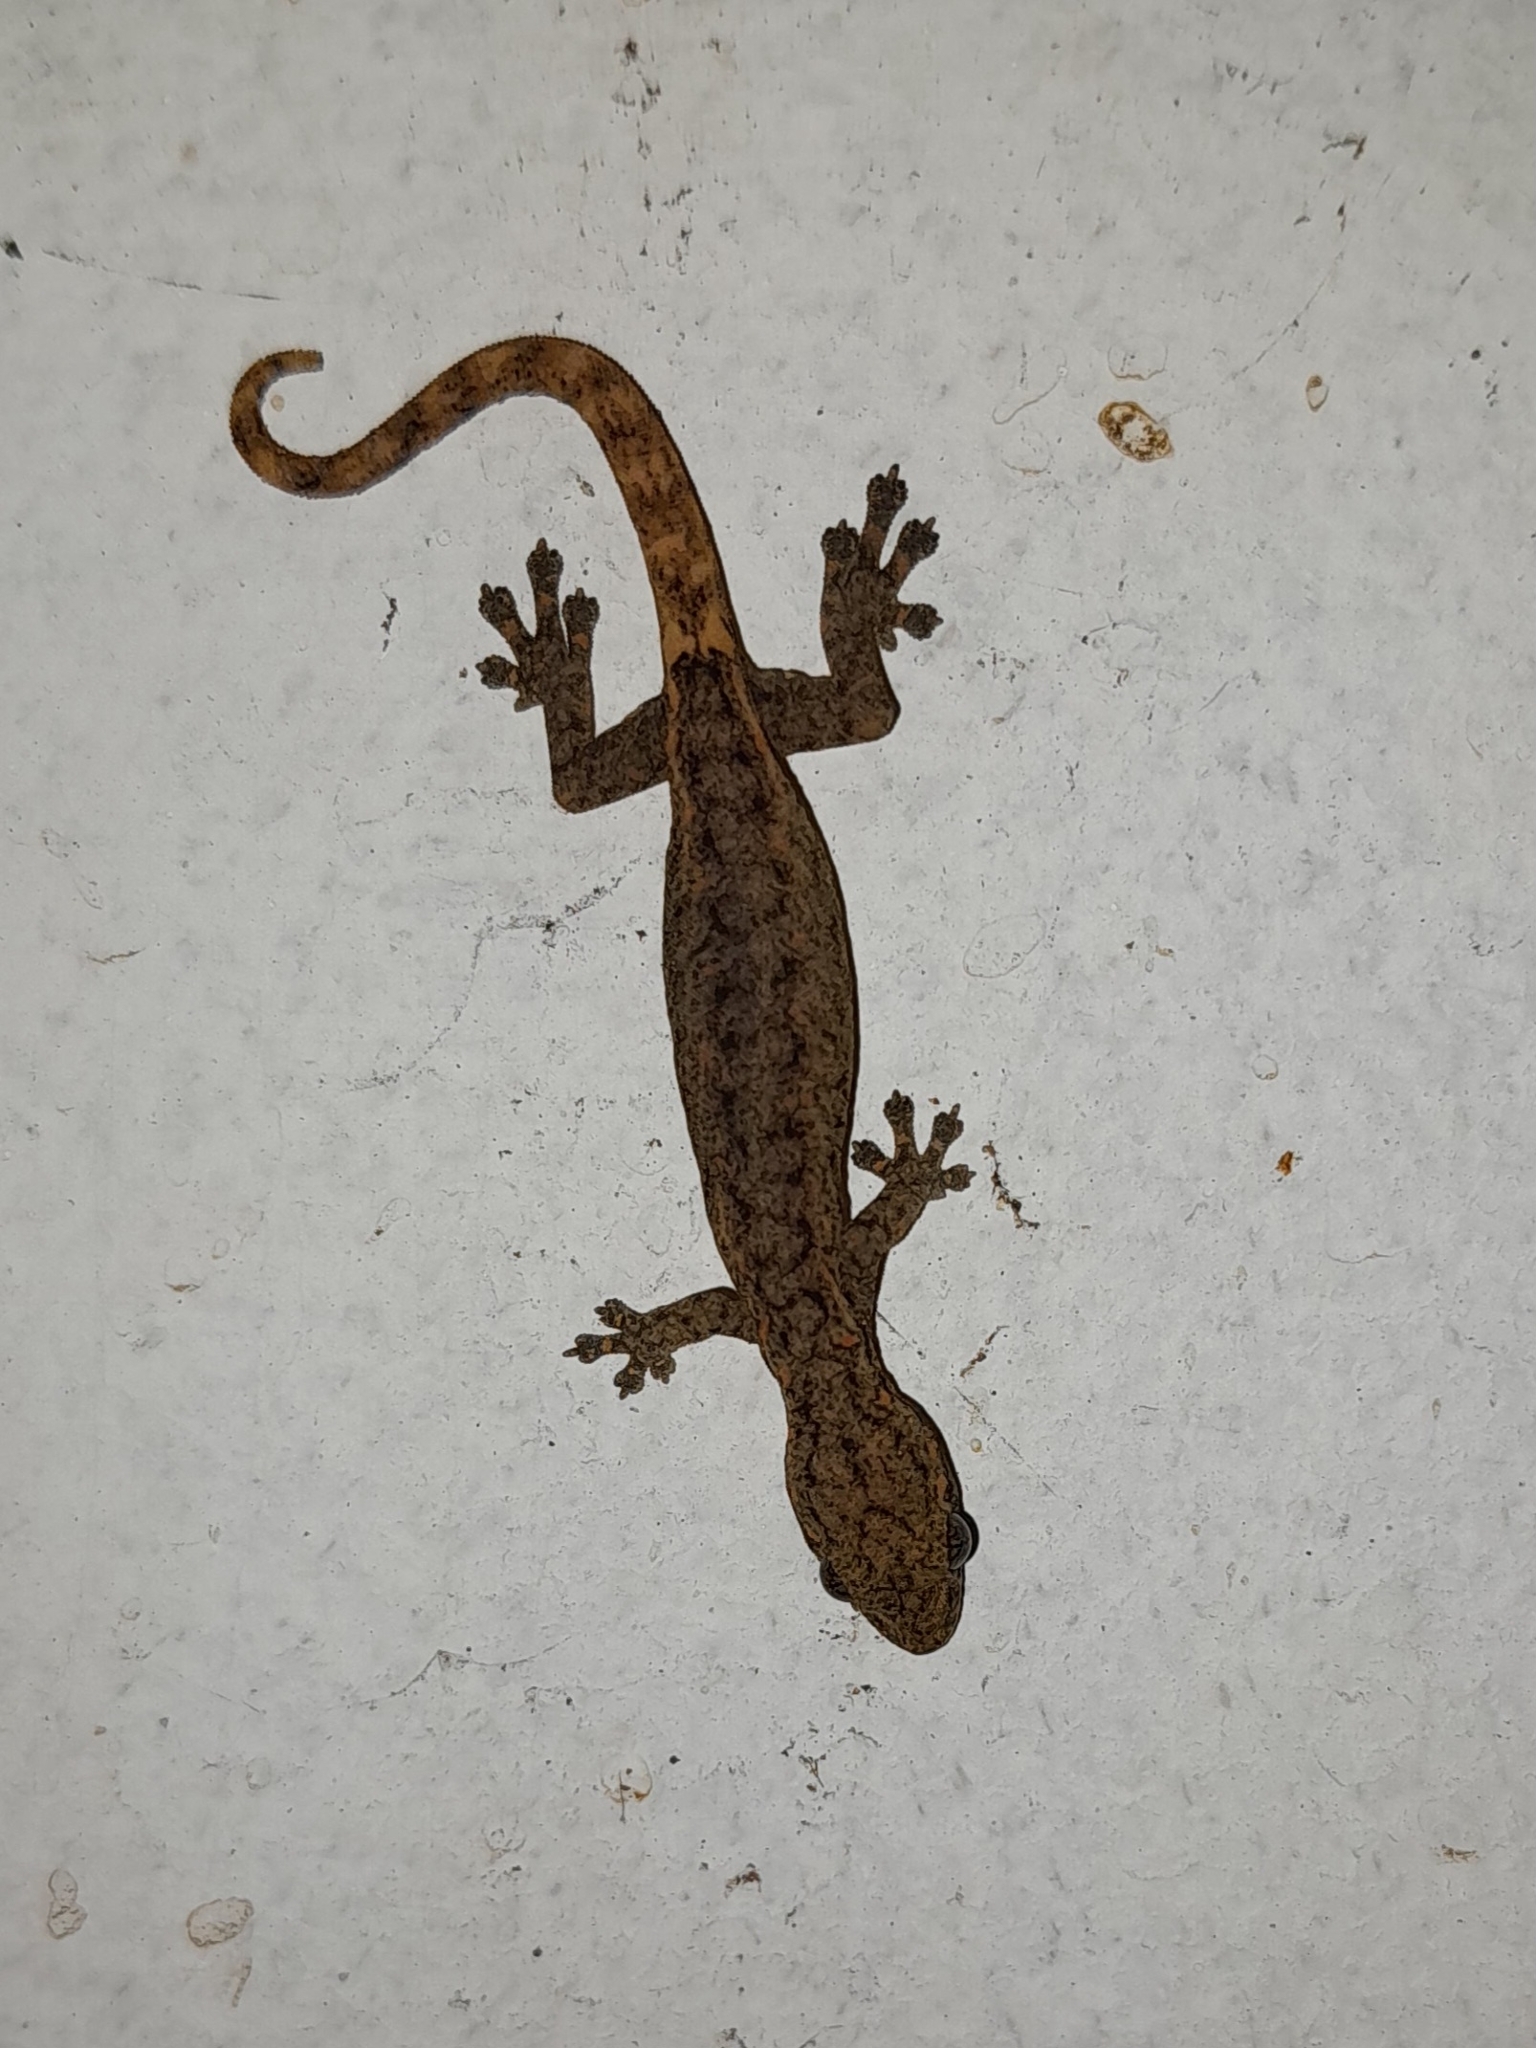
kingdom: Animalia
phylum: Chordata
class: Squamata
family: Gekkonidae
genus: Hemiphyllodactylus
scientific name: Hemiphyllodactylus typus
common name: Common dwarf gecko
